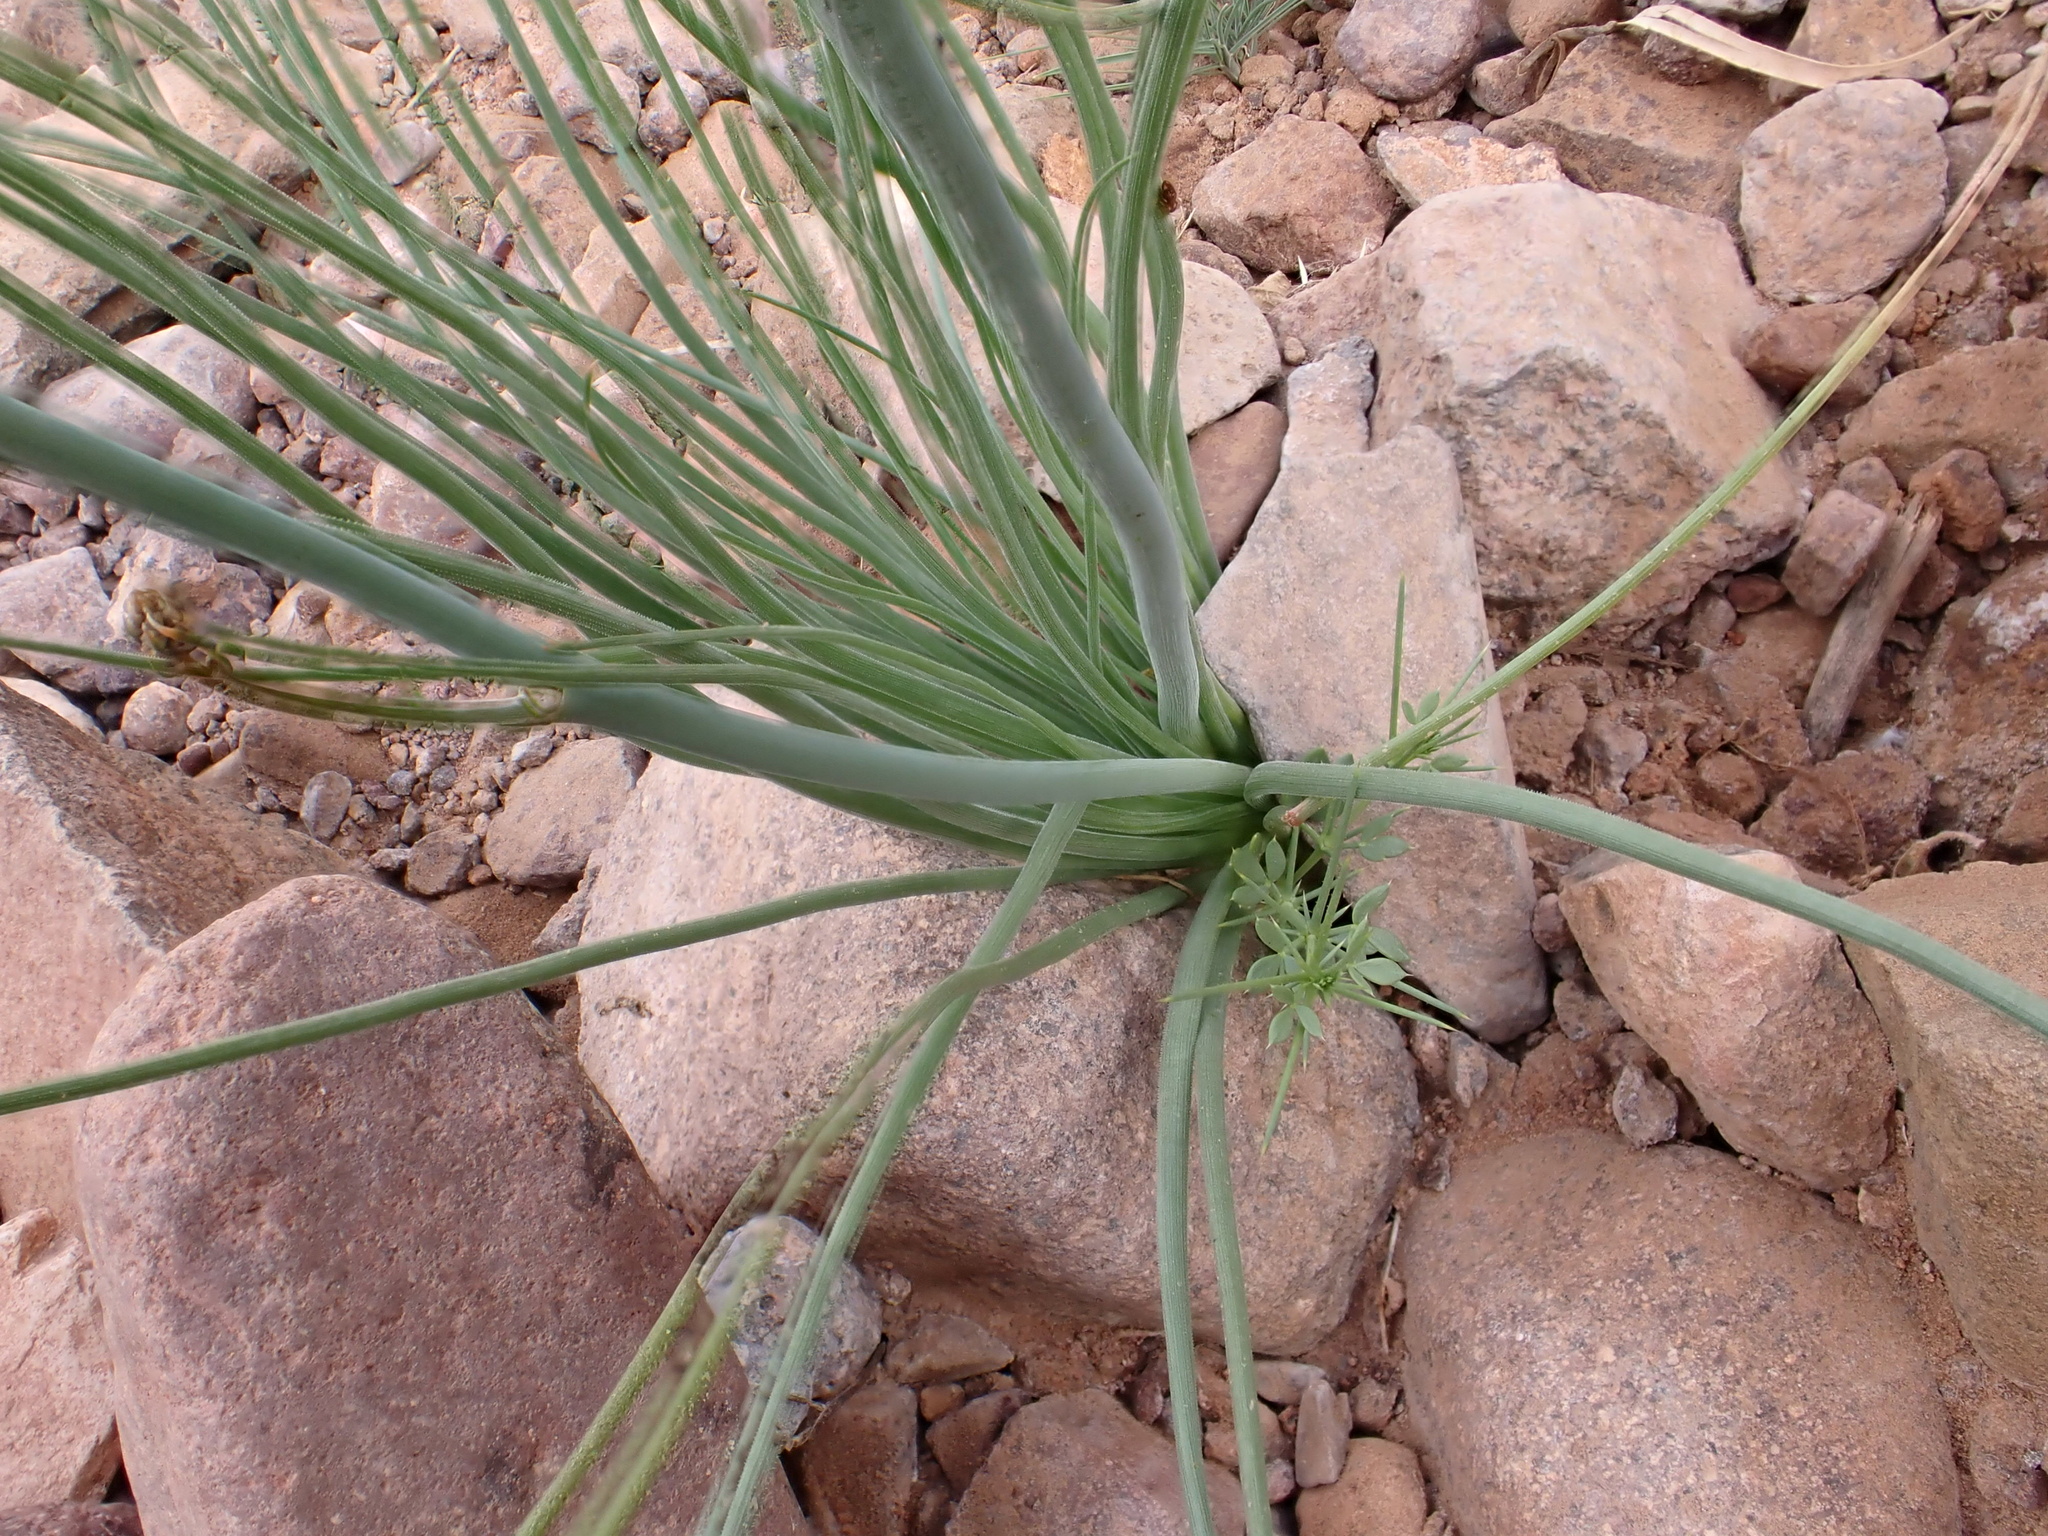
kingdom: Plantae
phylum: Tracheophyta
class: Liliopsida
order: Asparagales
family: Asphodelaceae
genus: Asphodelus
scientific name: Asphodelus tenuifolius
